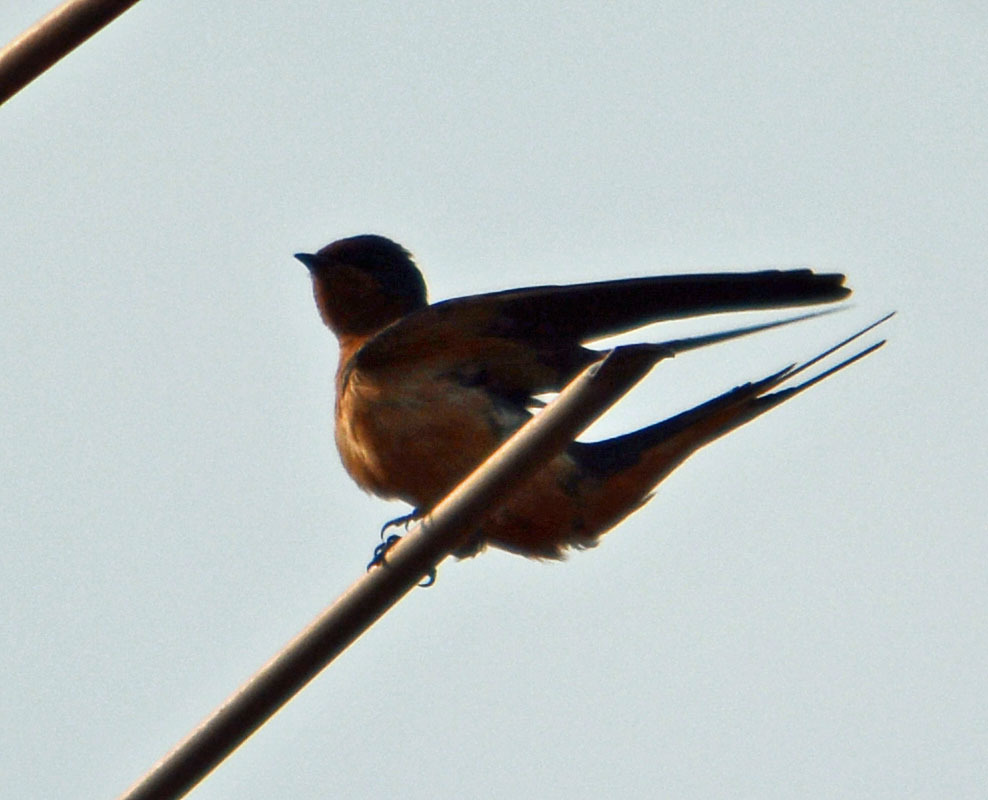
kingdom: Animalia
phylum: Chordata
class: Aves
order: Passeriformes
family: Hirundinidae
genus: Hirundo
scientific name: Hirundo rustica
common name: Barn swallow
